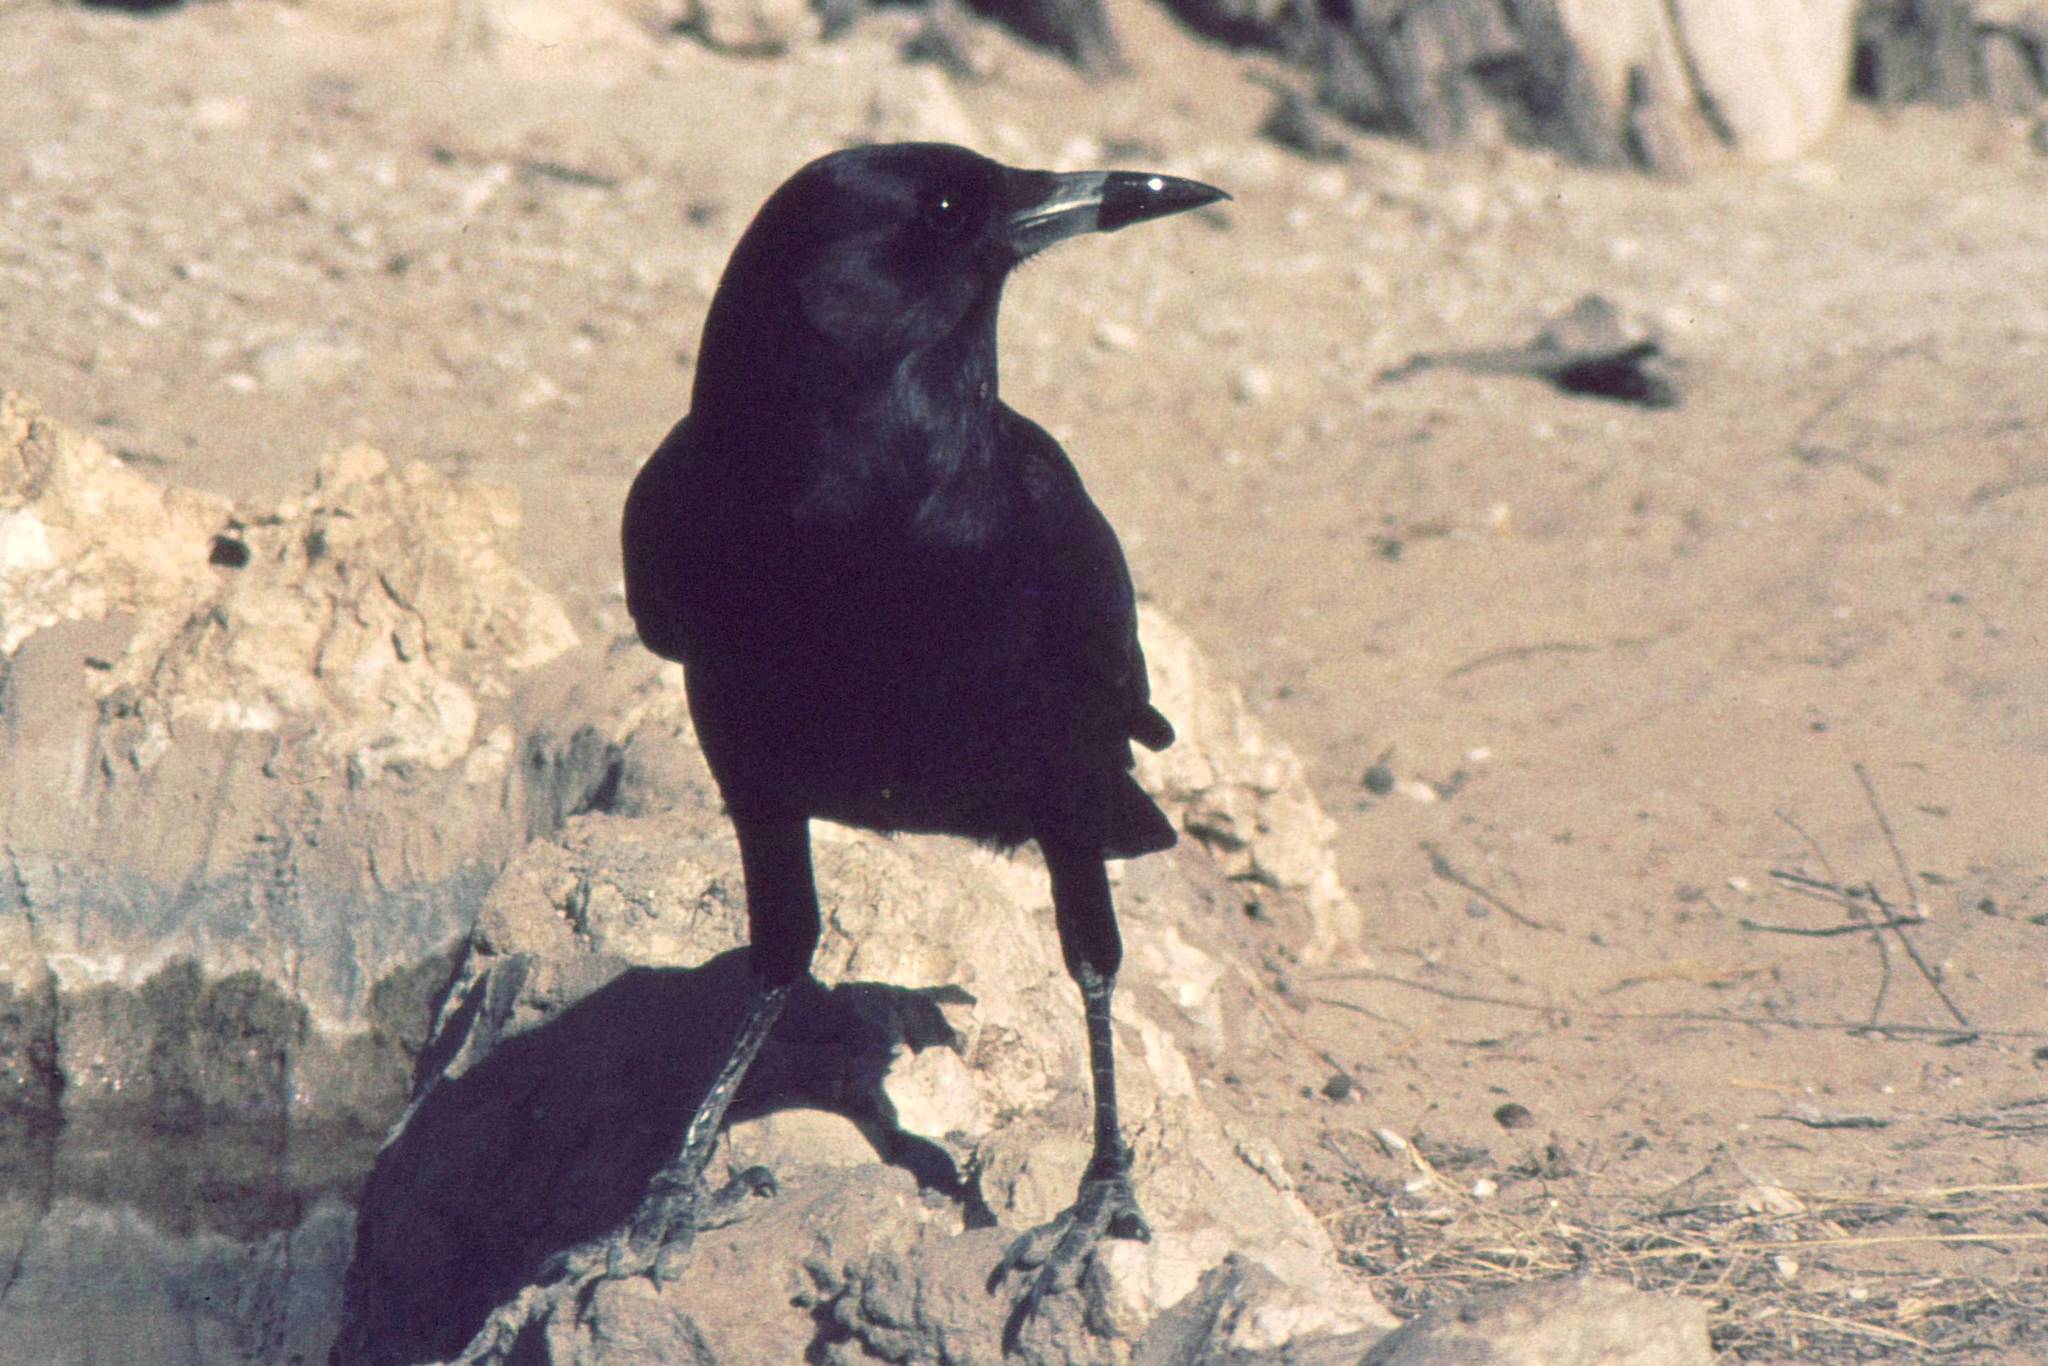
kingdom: Animalia
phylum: Chordata
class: Aves
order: Passeriformes
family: Corvidae
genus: Corvus
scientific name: Corvus capensis
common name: Cape crow
